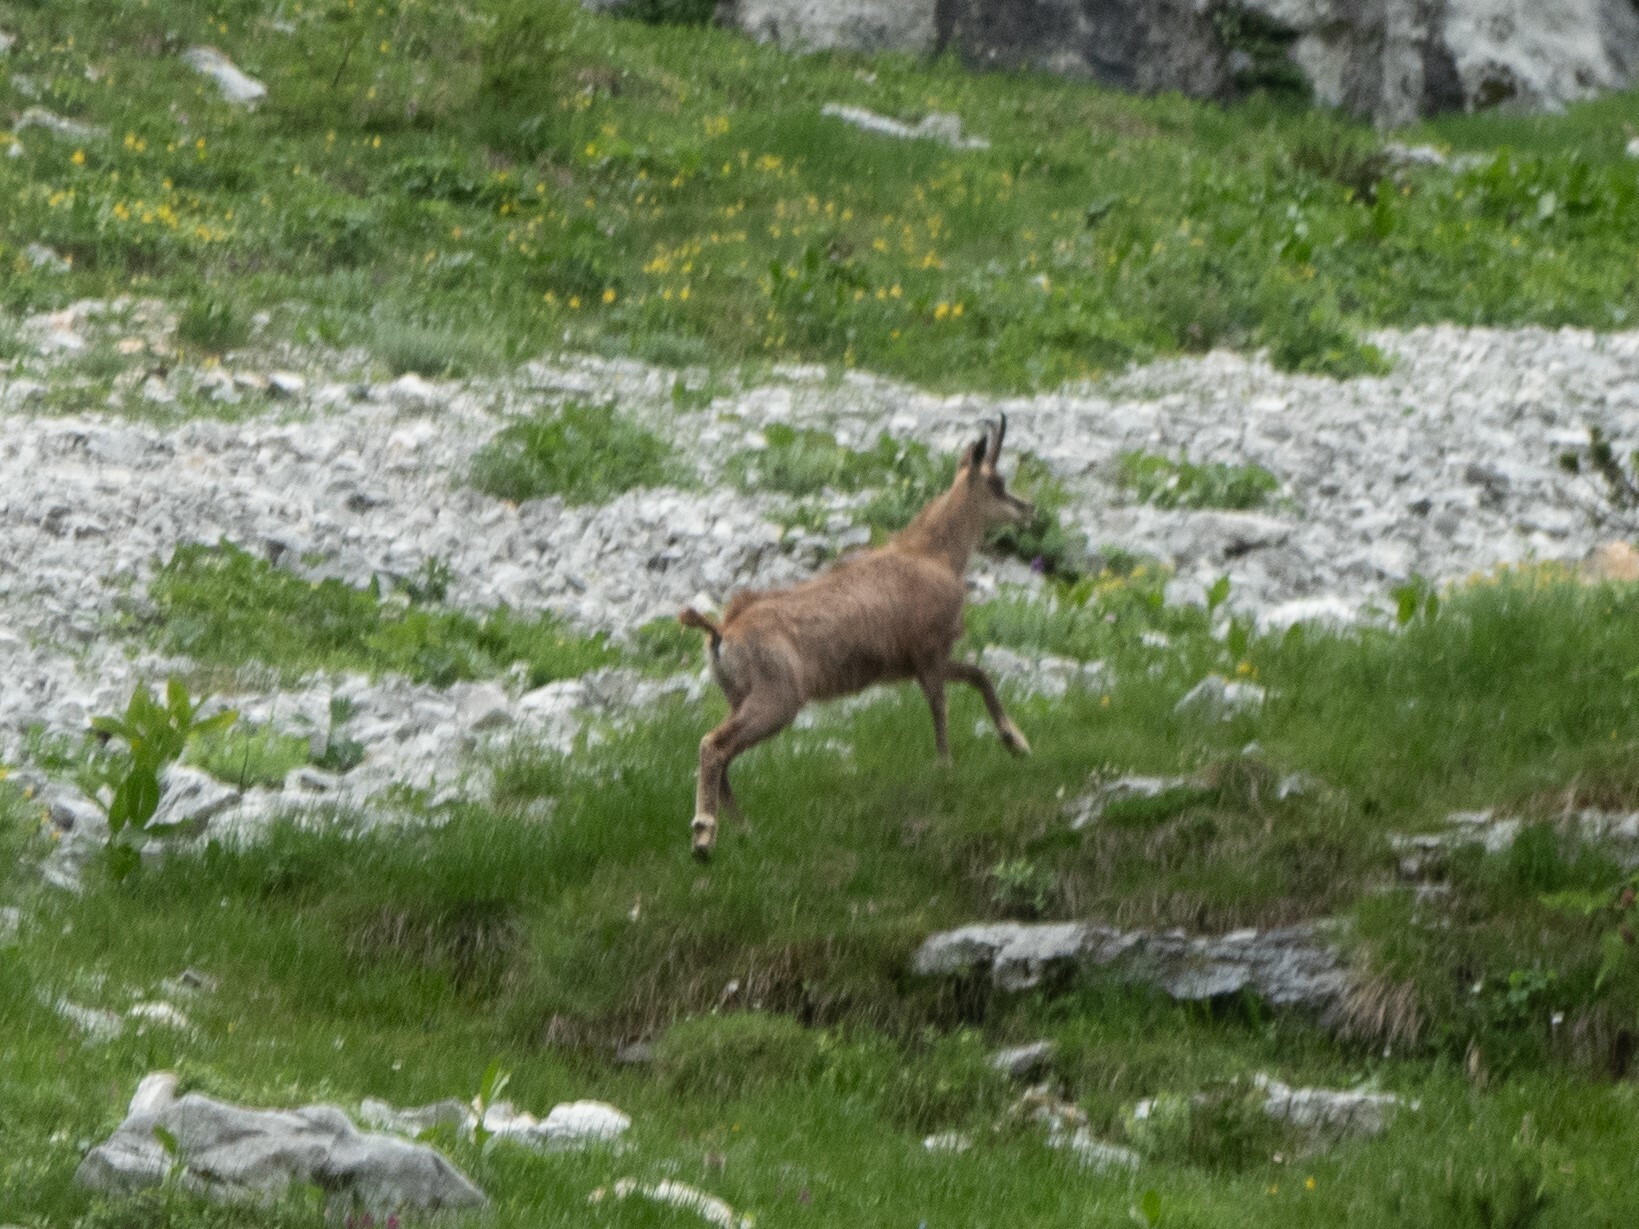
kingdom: Animalia
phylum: Chordata
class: Mammalia
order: Artiodactyla
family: Bovidae
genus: Rupicapra
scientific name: Rupicapra rupicapra
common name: Chamois
